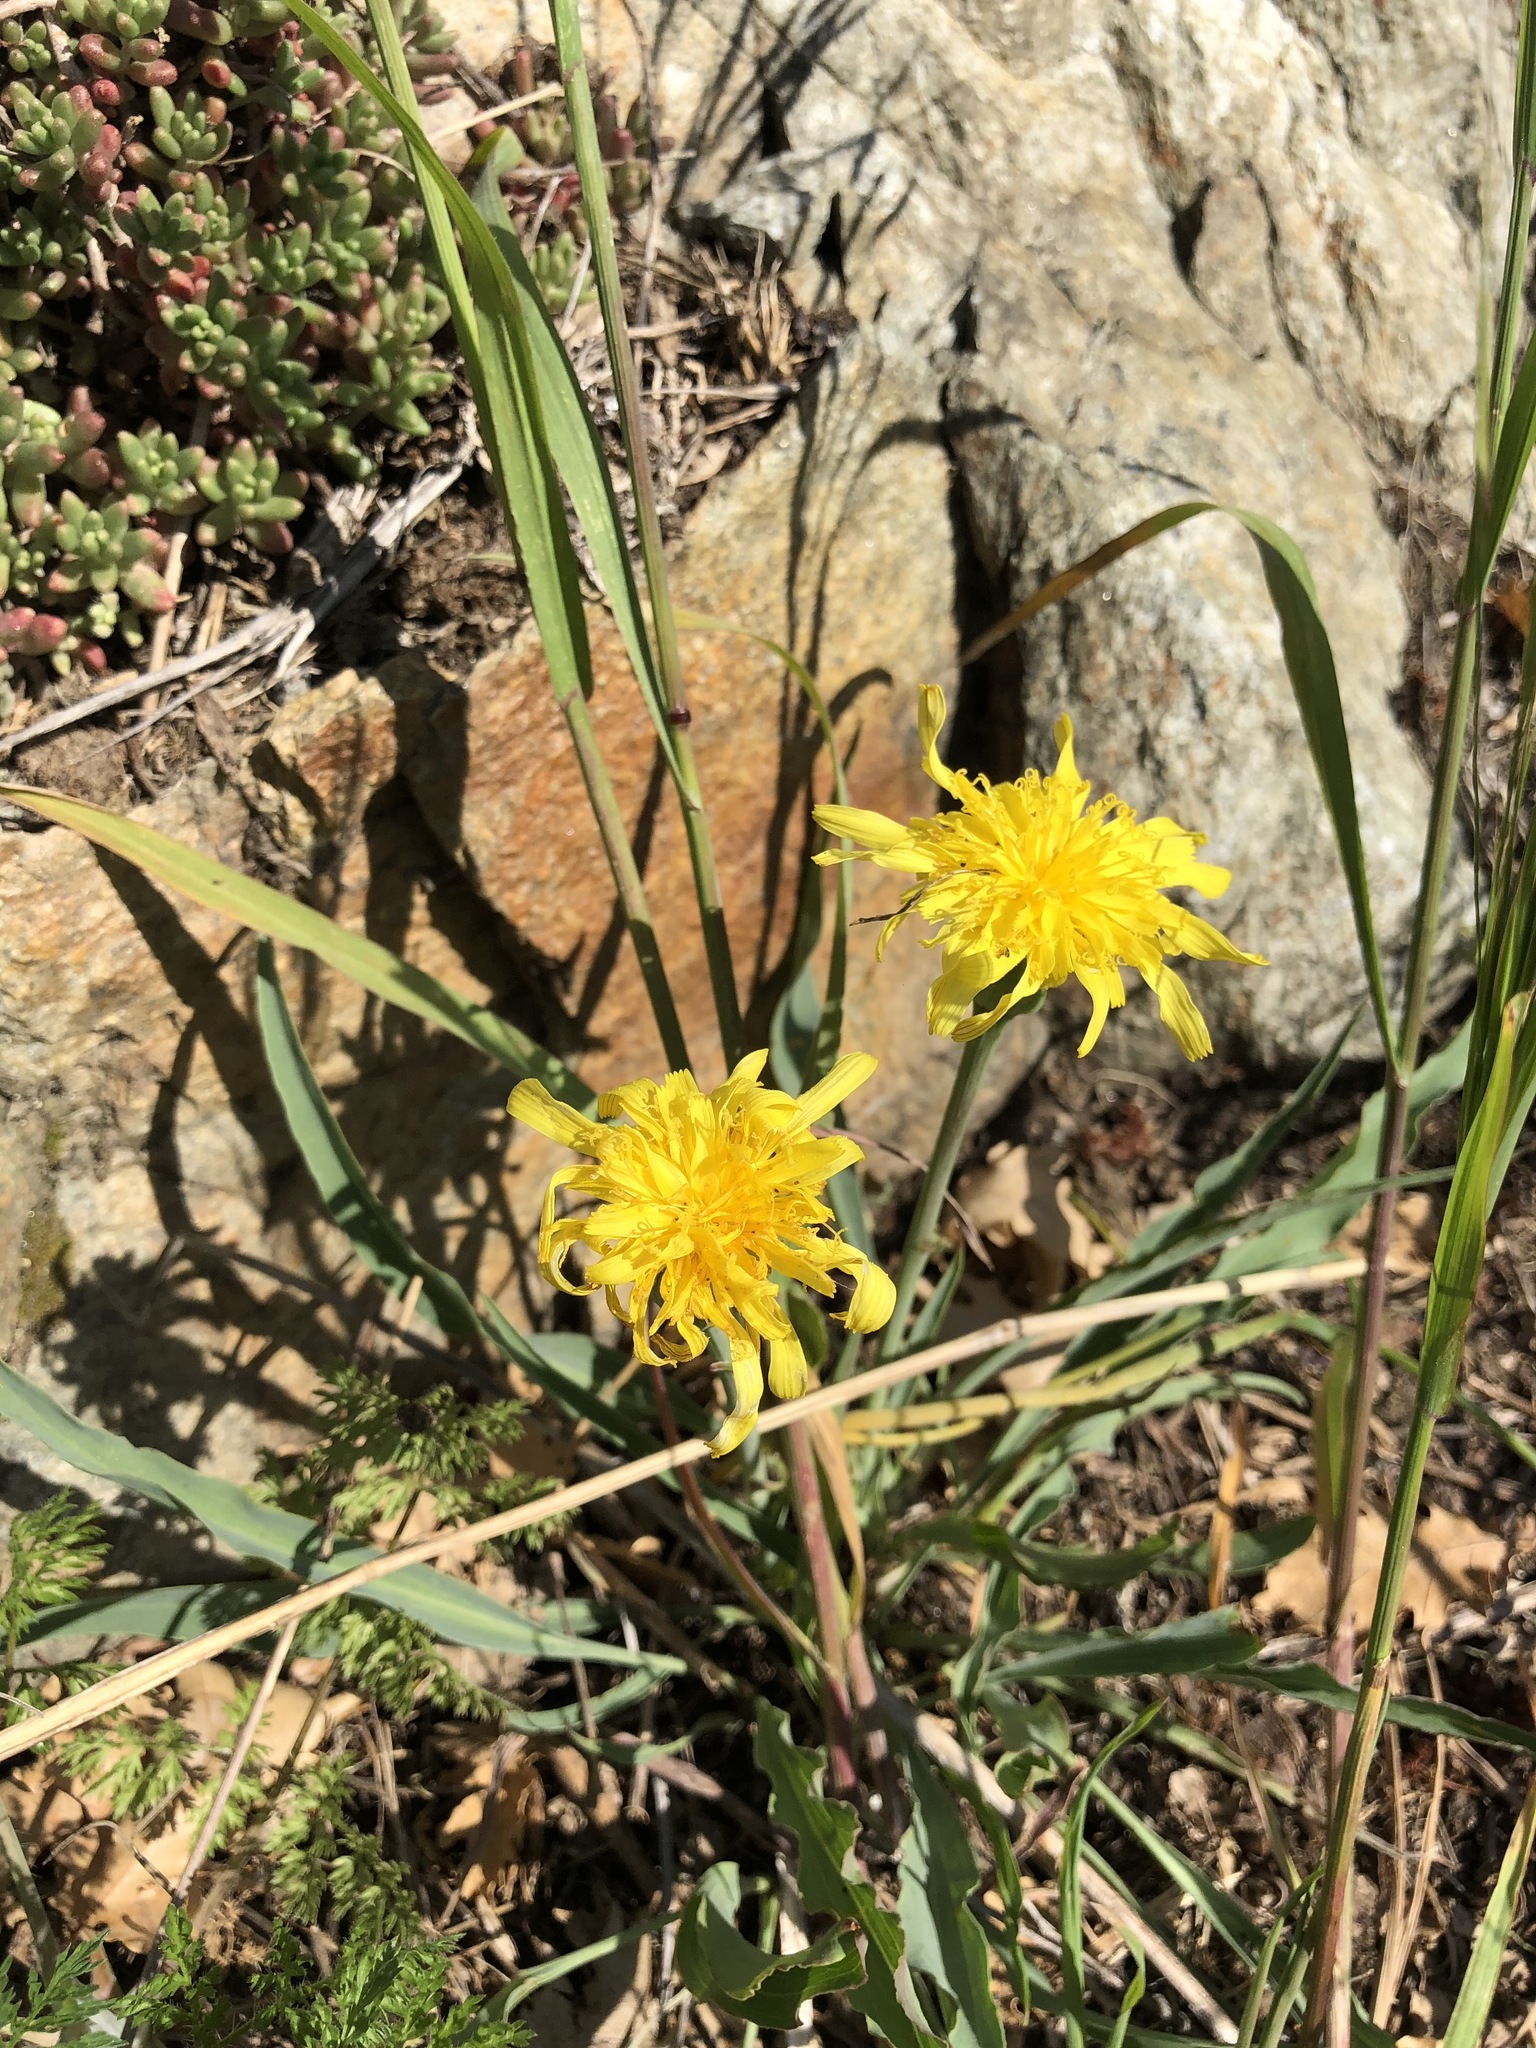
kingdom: Plantae
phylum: Tracheophyta
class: Magnoliopsida
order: Asterales
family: Asteraceae
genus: Takhtajaniantha
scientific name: Takhtajaniantha austriaca
